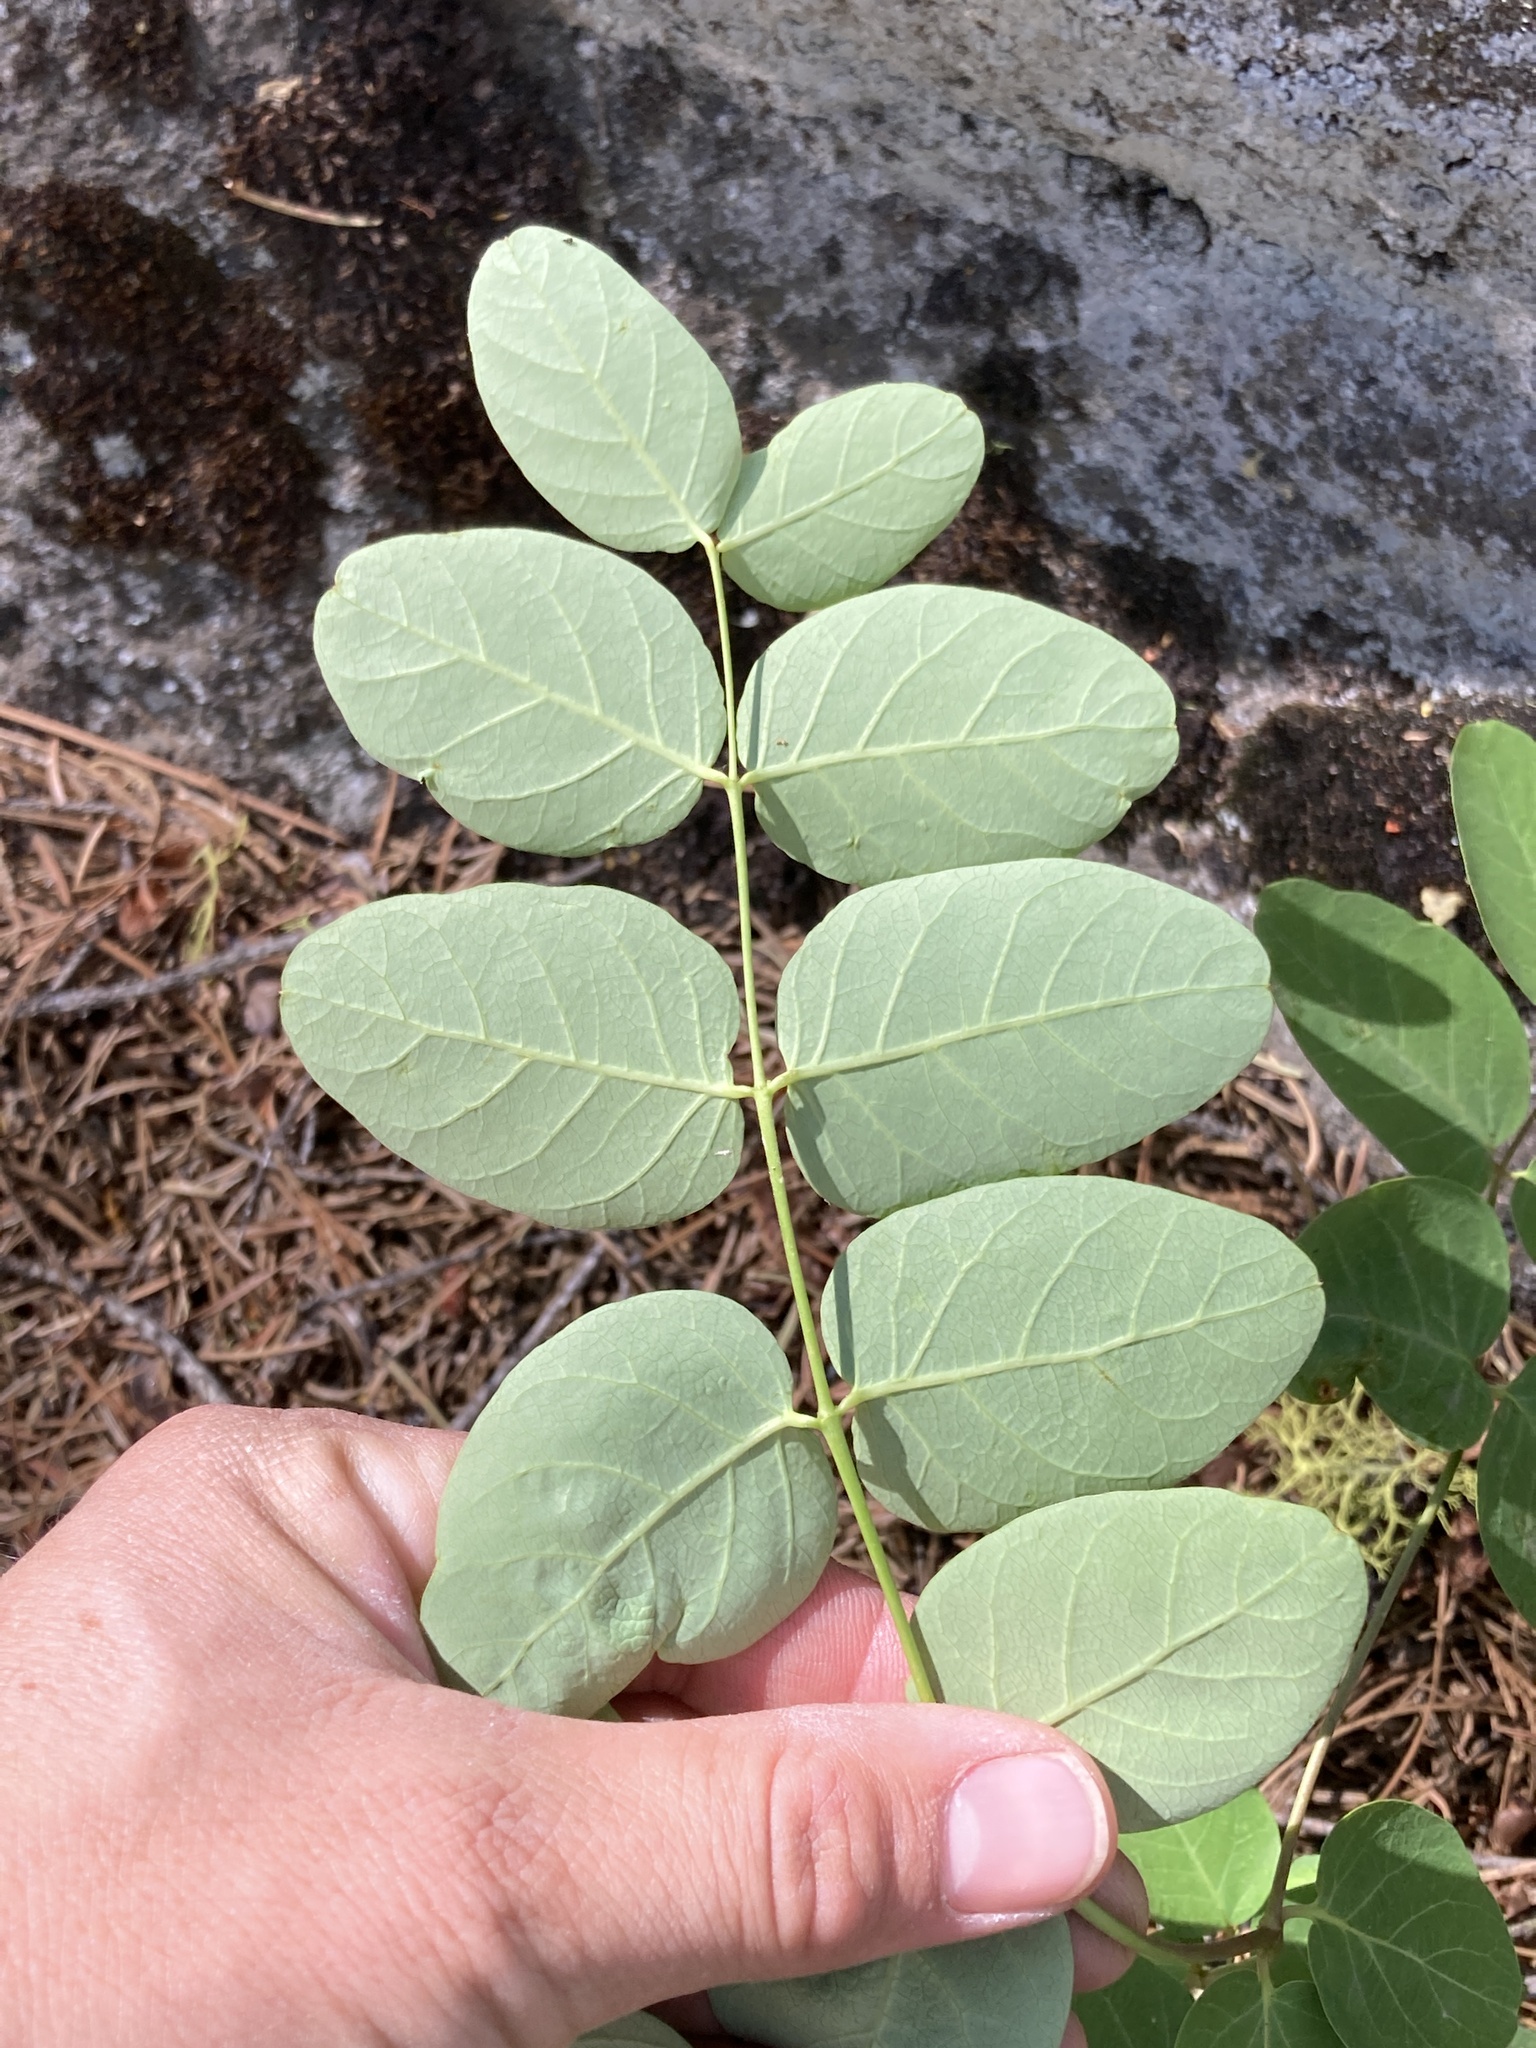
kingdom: Plantae
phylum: Tracheophyta
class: Magnoliopsida
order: Gentianales
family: Apocynaceae
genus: Apocynum
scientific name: Apocynum androsaemifolium
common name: Spreading dogbane
